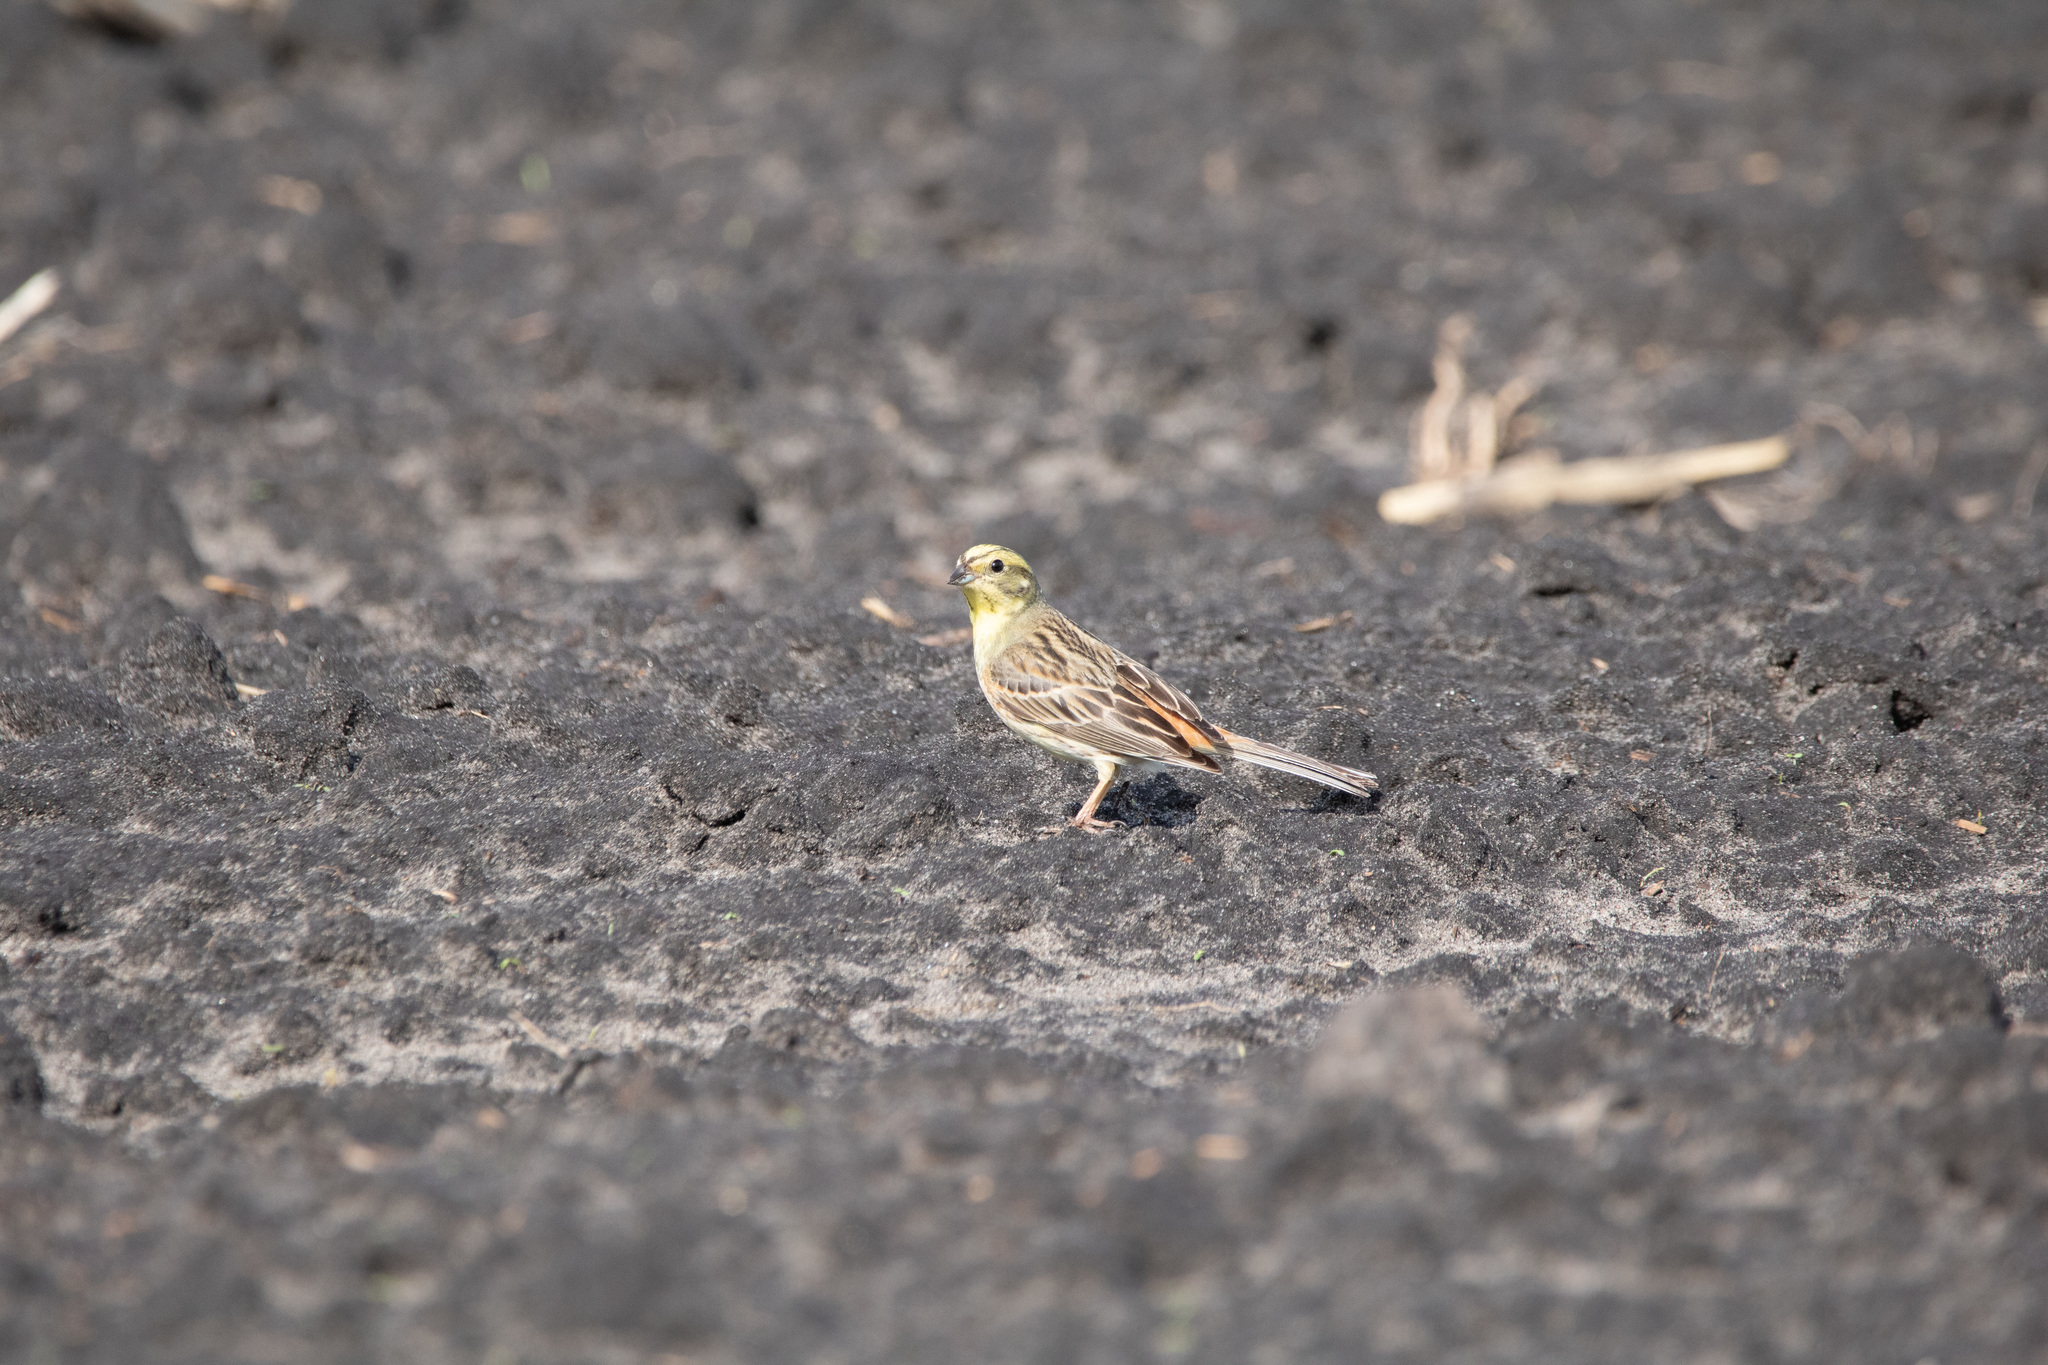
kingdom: Animalia
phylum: Chordata
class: Aves
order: Passeriformes
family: Emberizidae
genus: Emberiza
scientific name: Emberiza citrinella
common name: Yellowhammer
